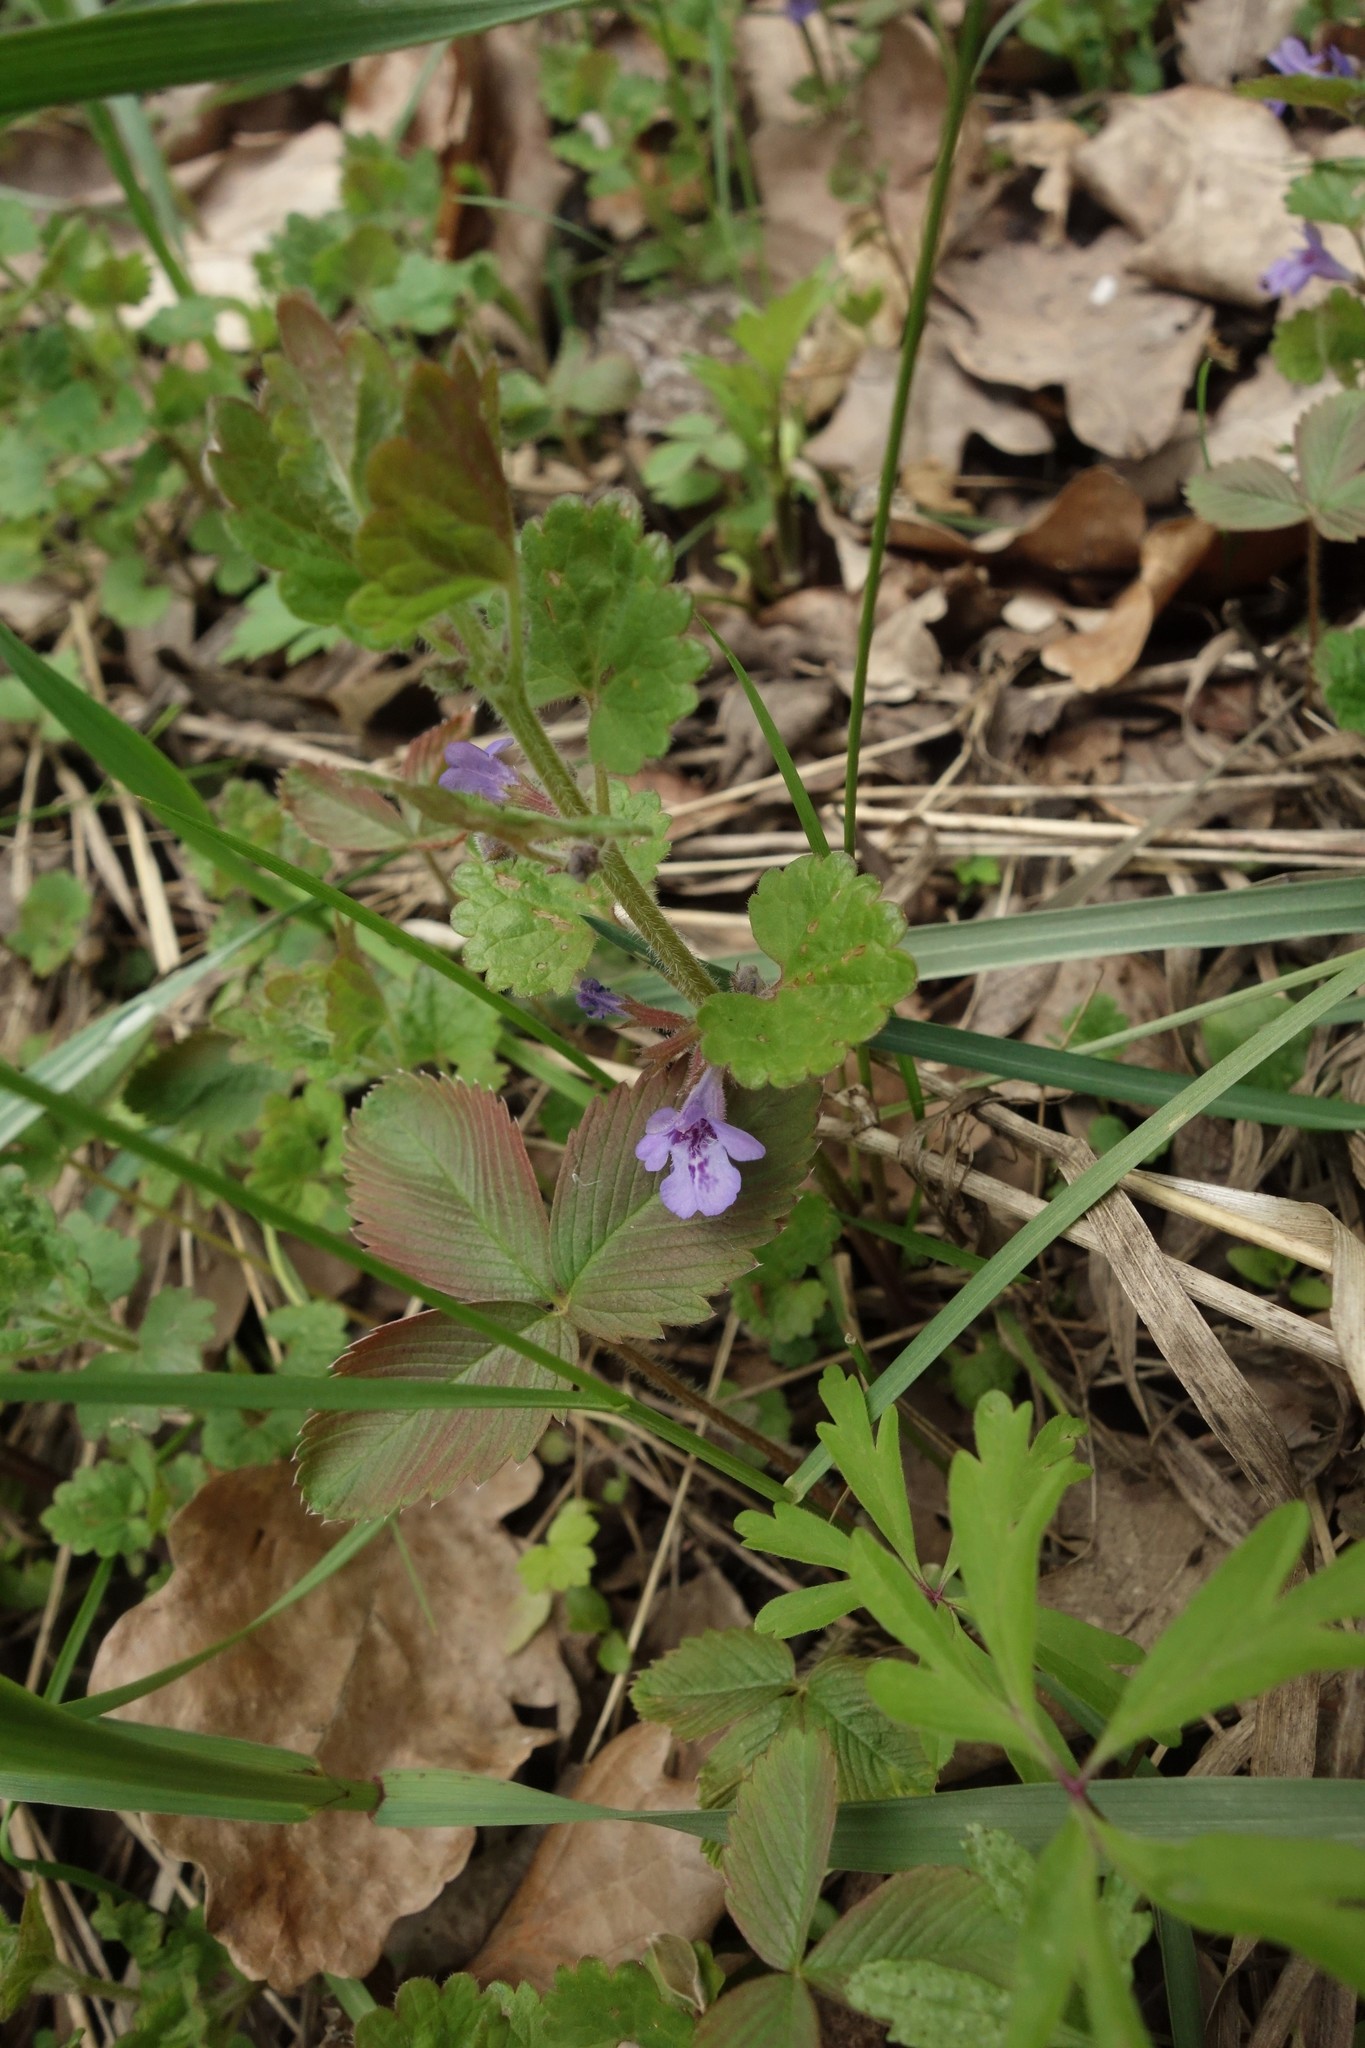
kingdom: Plantae
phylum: Tracheophyta
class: Magnoliopsida
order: Lamiales
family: Lamiaceae
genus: Glechoma
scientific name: Glechoma hederacea
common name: Ground ivy
